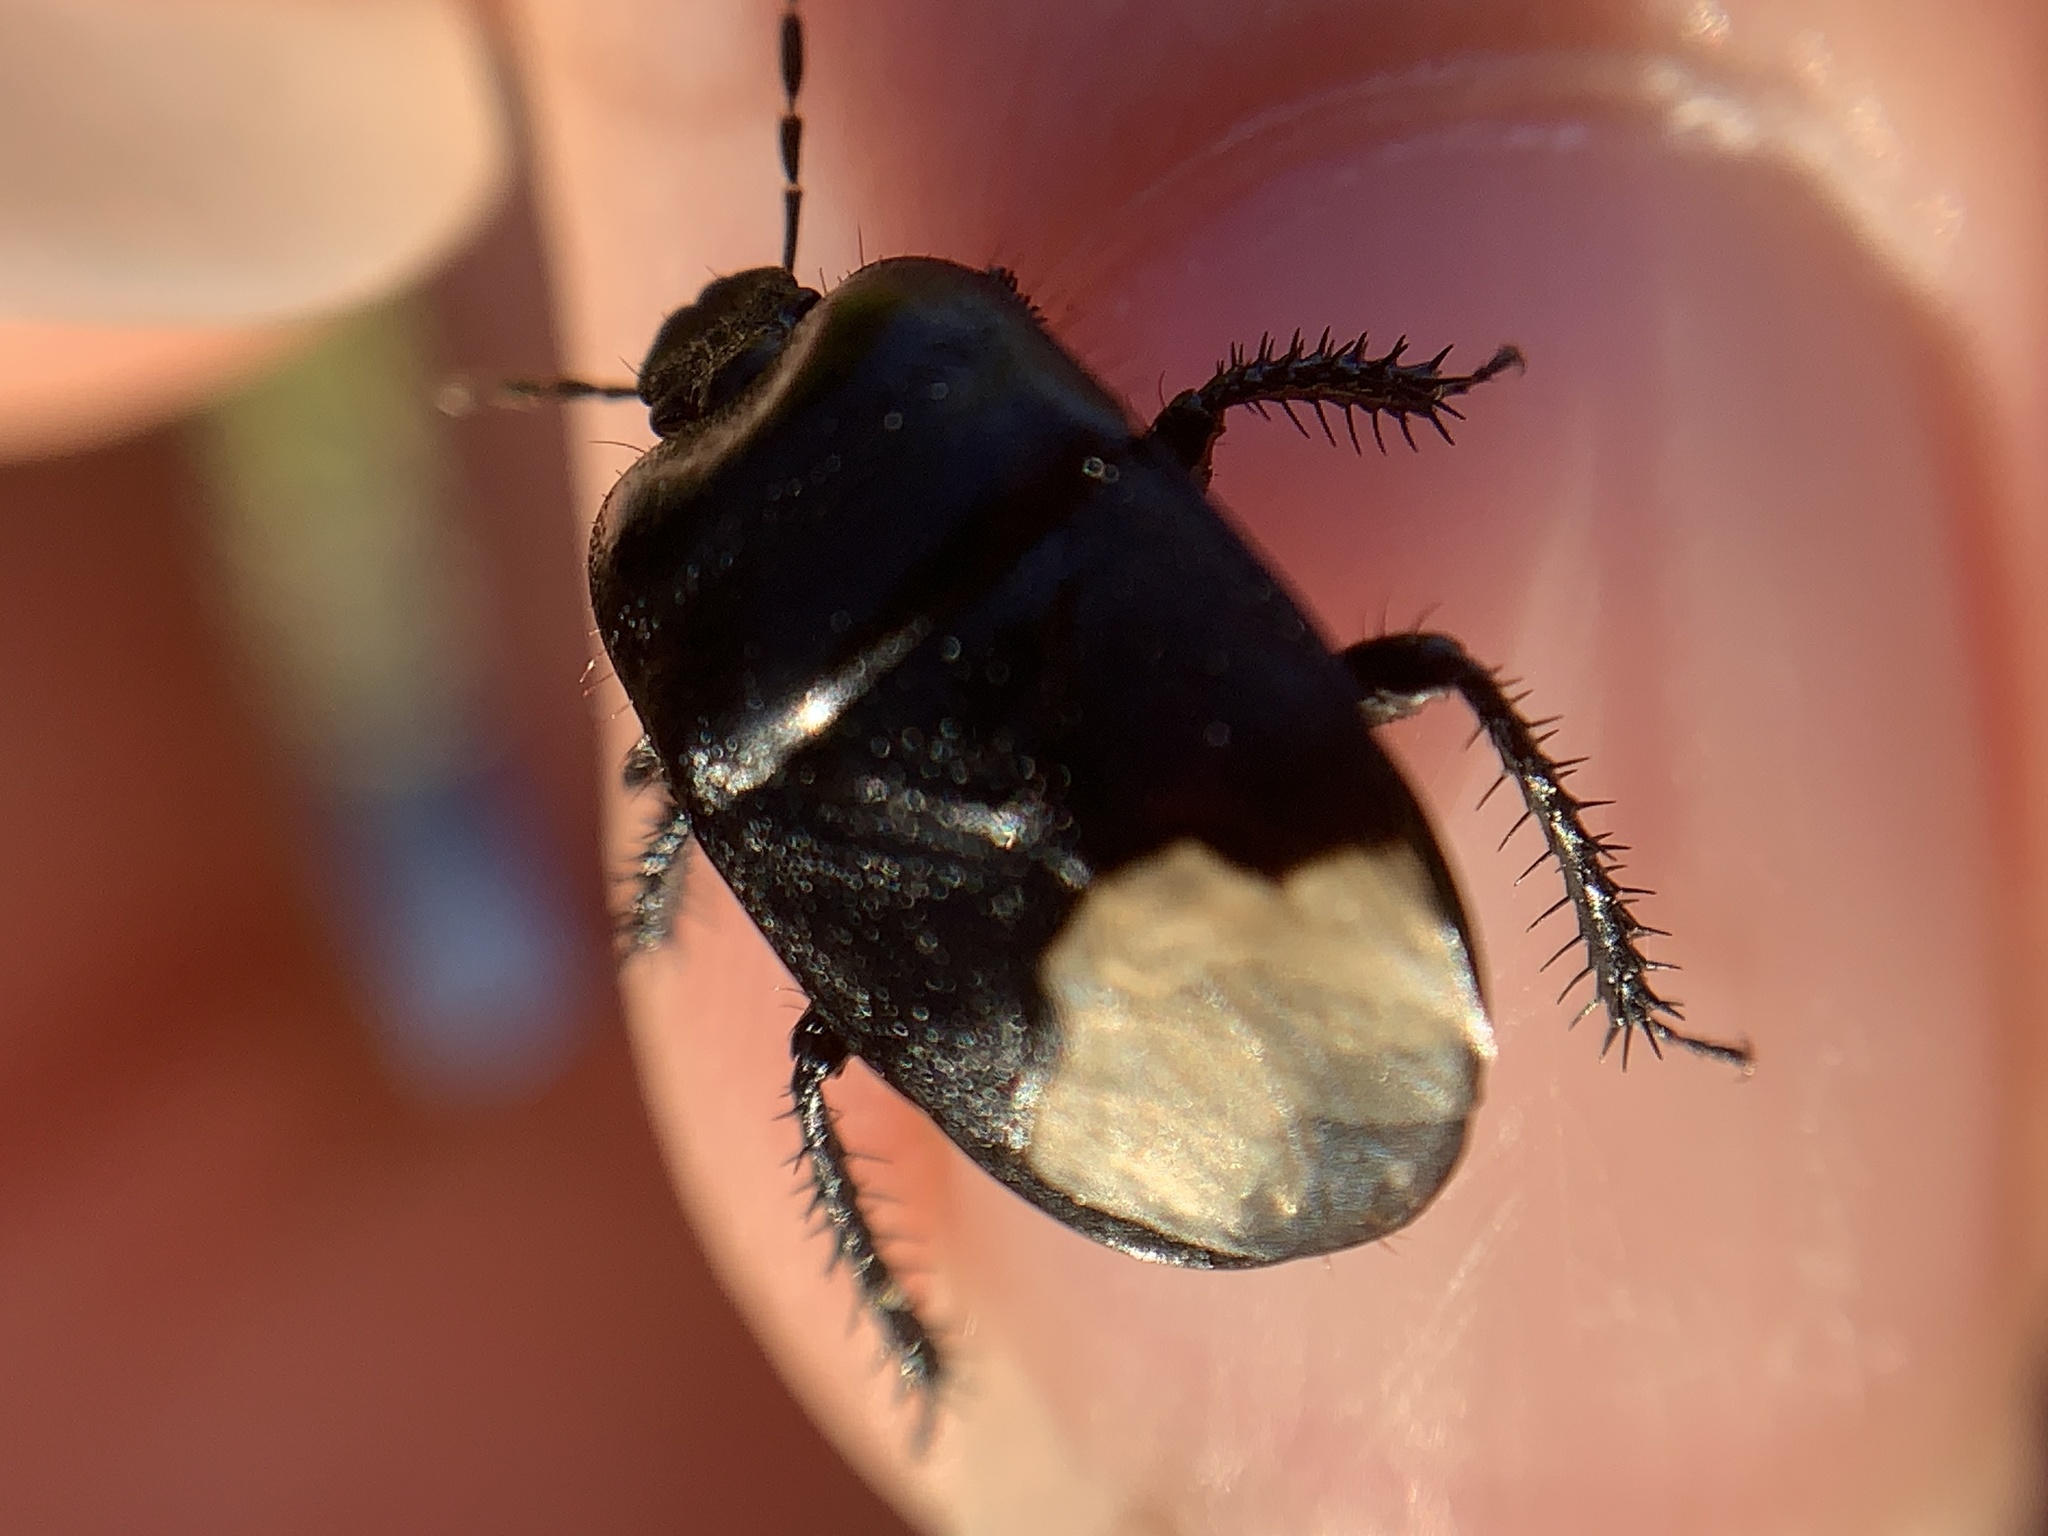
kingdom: Animalia
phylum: Arthropoda
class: Insecta
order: Hemiptera
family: Cydnidae
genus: Cydnus
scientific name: Cydnus aterrimus
